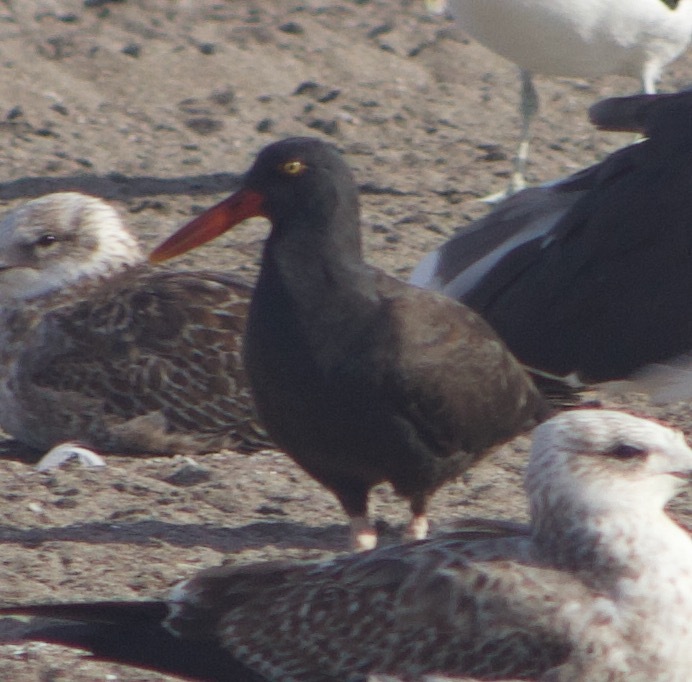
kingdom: Animalia
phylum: Chordata
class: Aves
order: Charadriiformes
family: Haematopodidae
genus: Haematopus
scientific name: Haematopus ater
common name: Blackish oystercatcher
